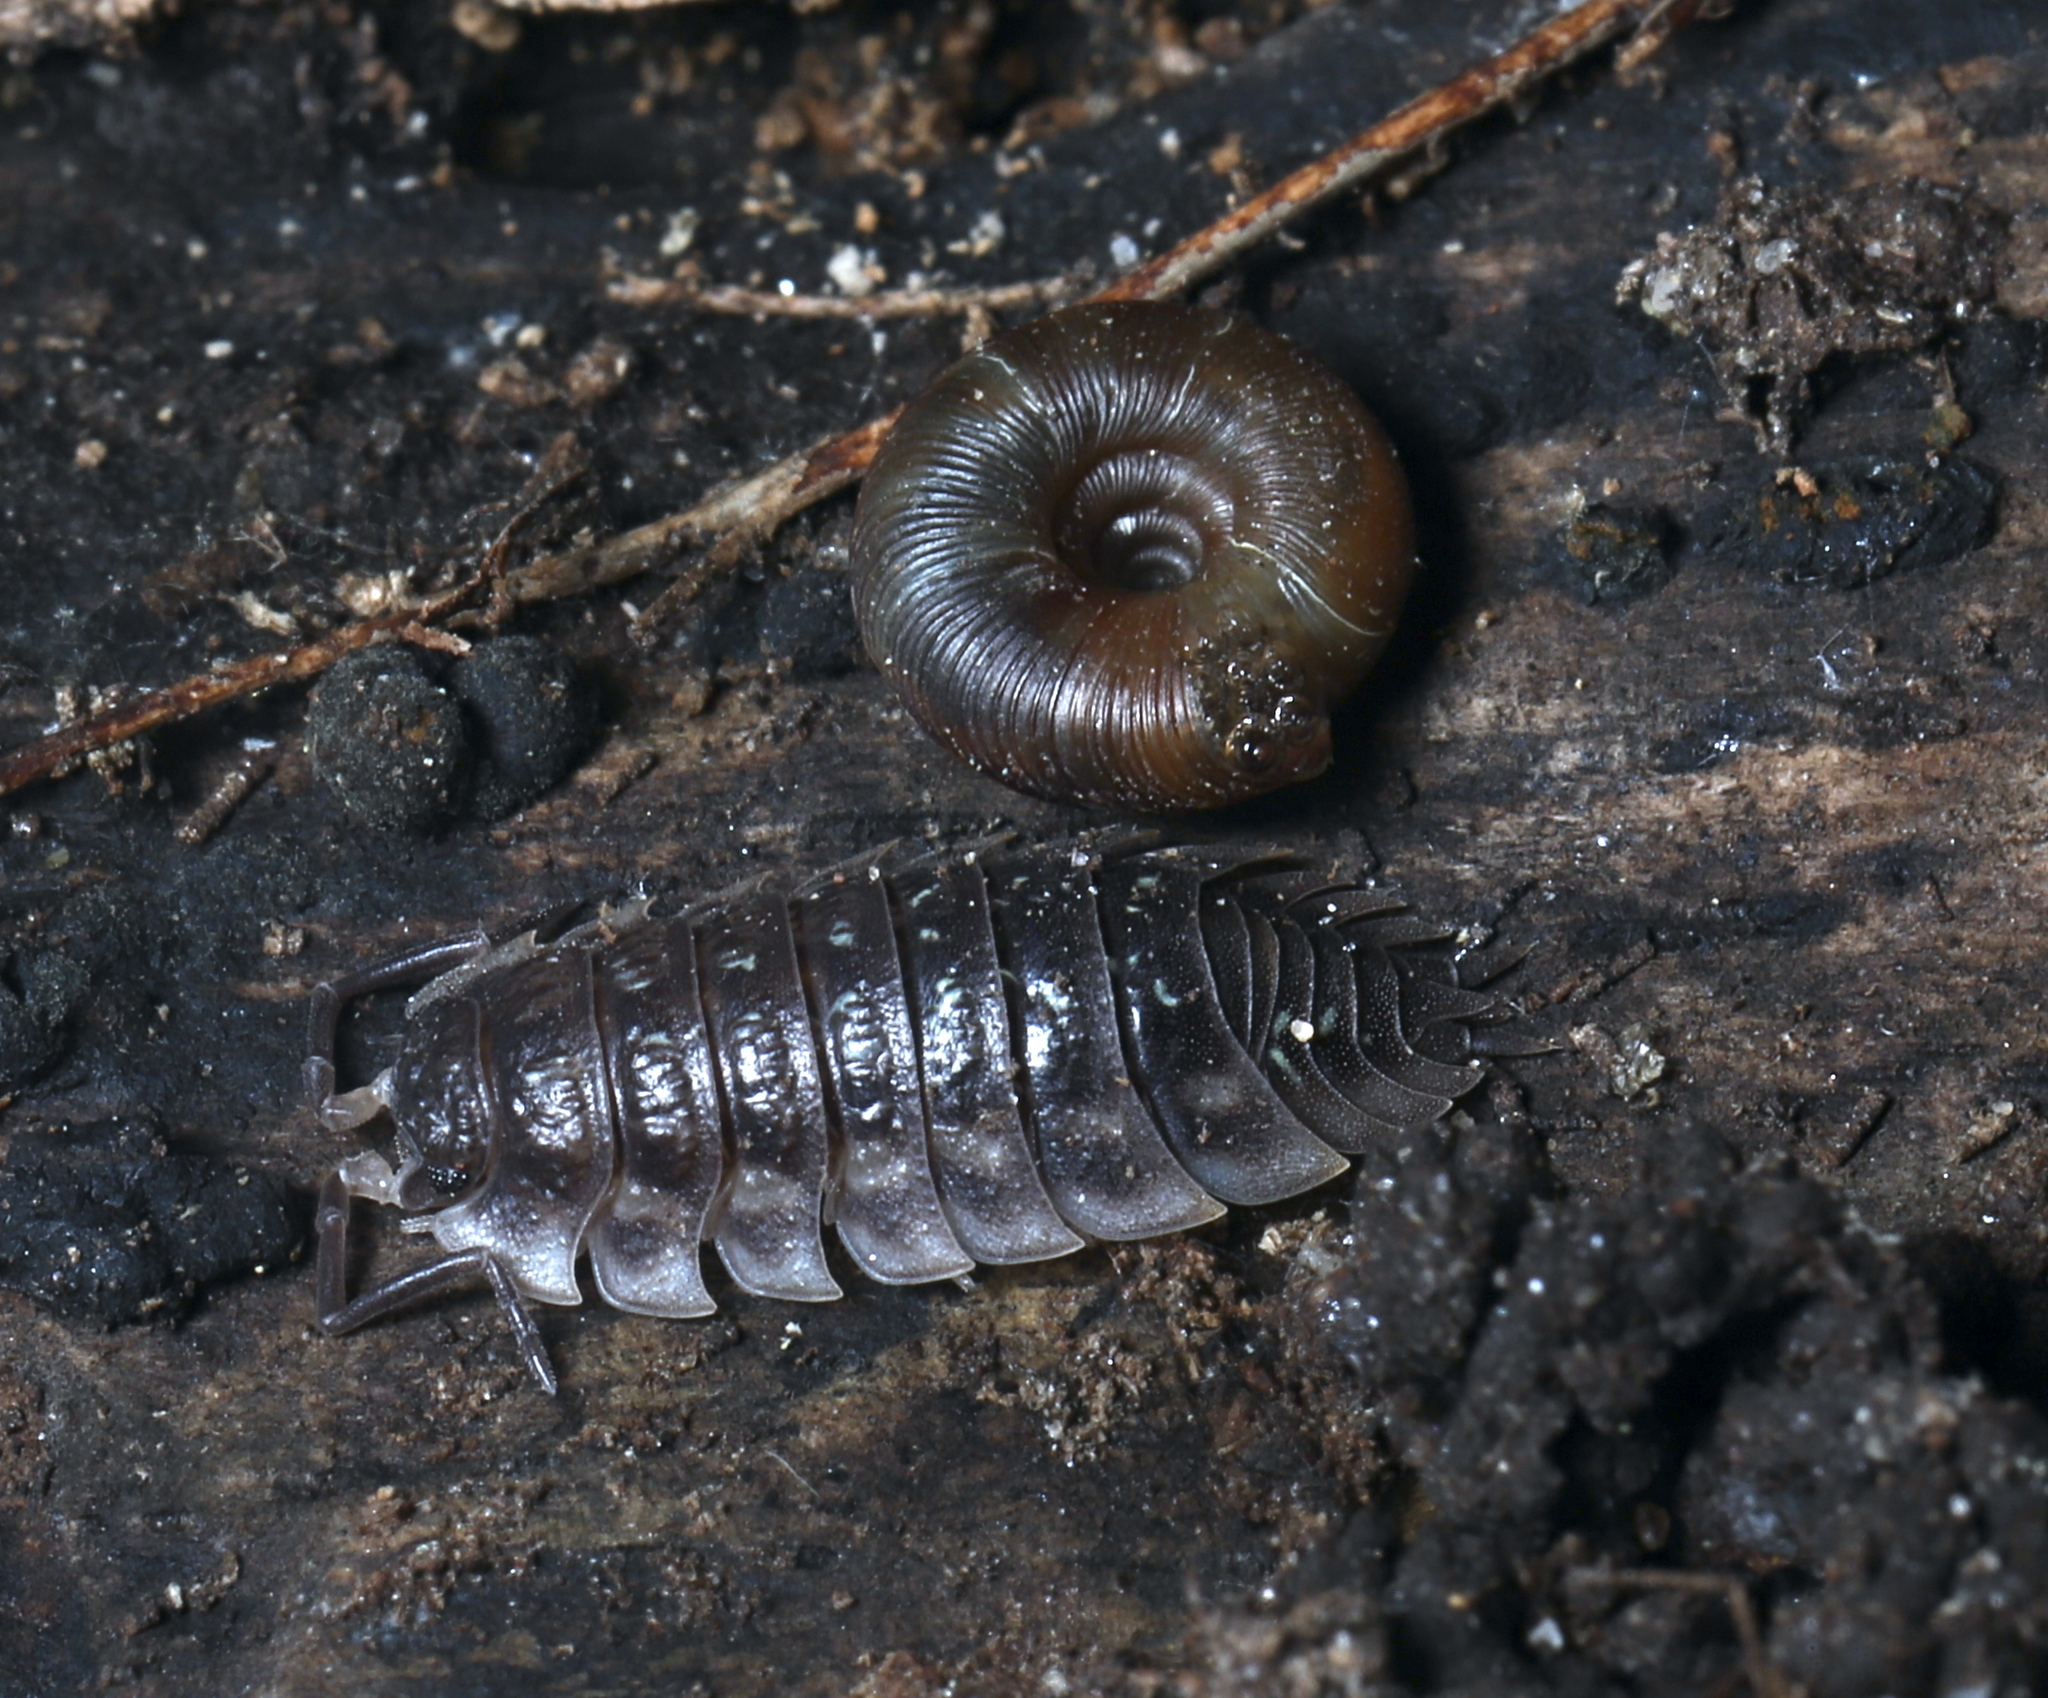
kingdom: Animalia
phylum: Arthropoda
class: Malacostraca
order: Isopoda
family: Oniscidae
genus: Oniscus
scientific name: Oniscus asellus
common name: Common shiny woodlouse
